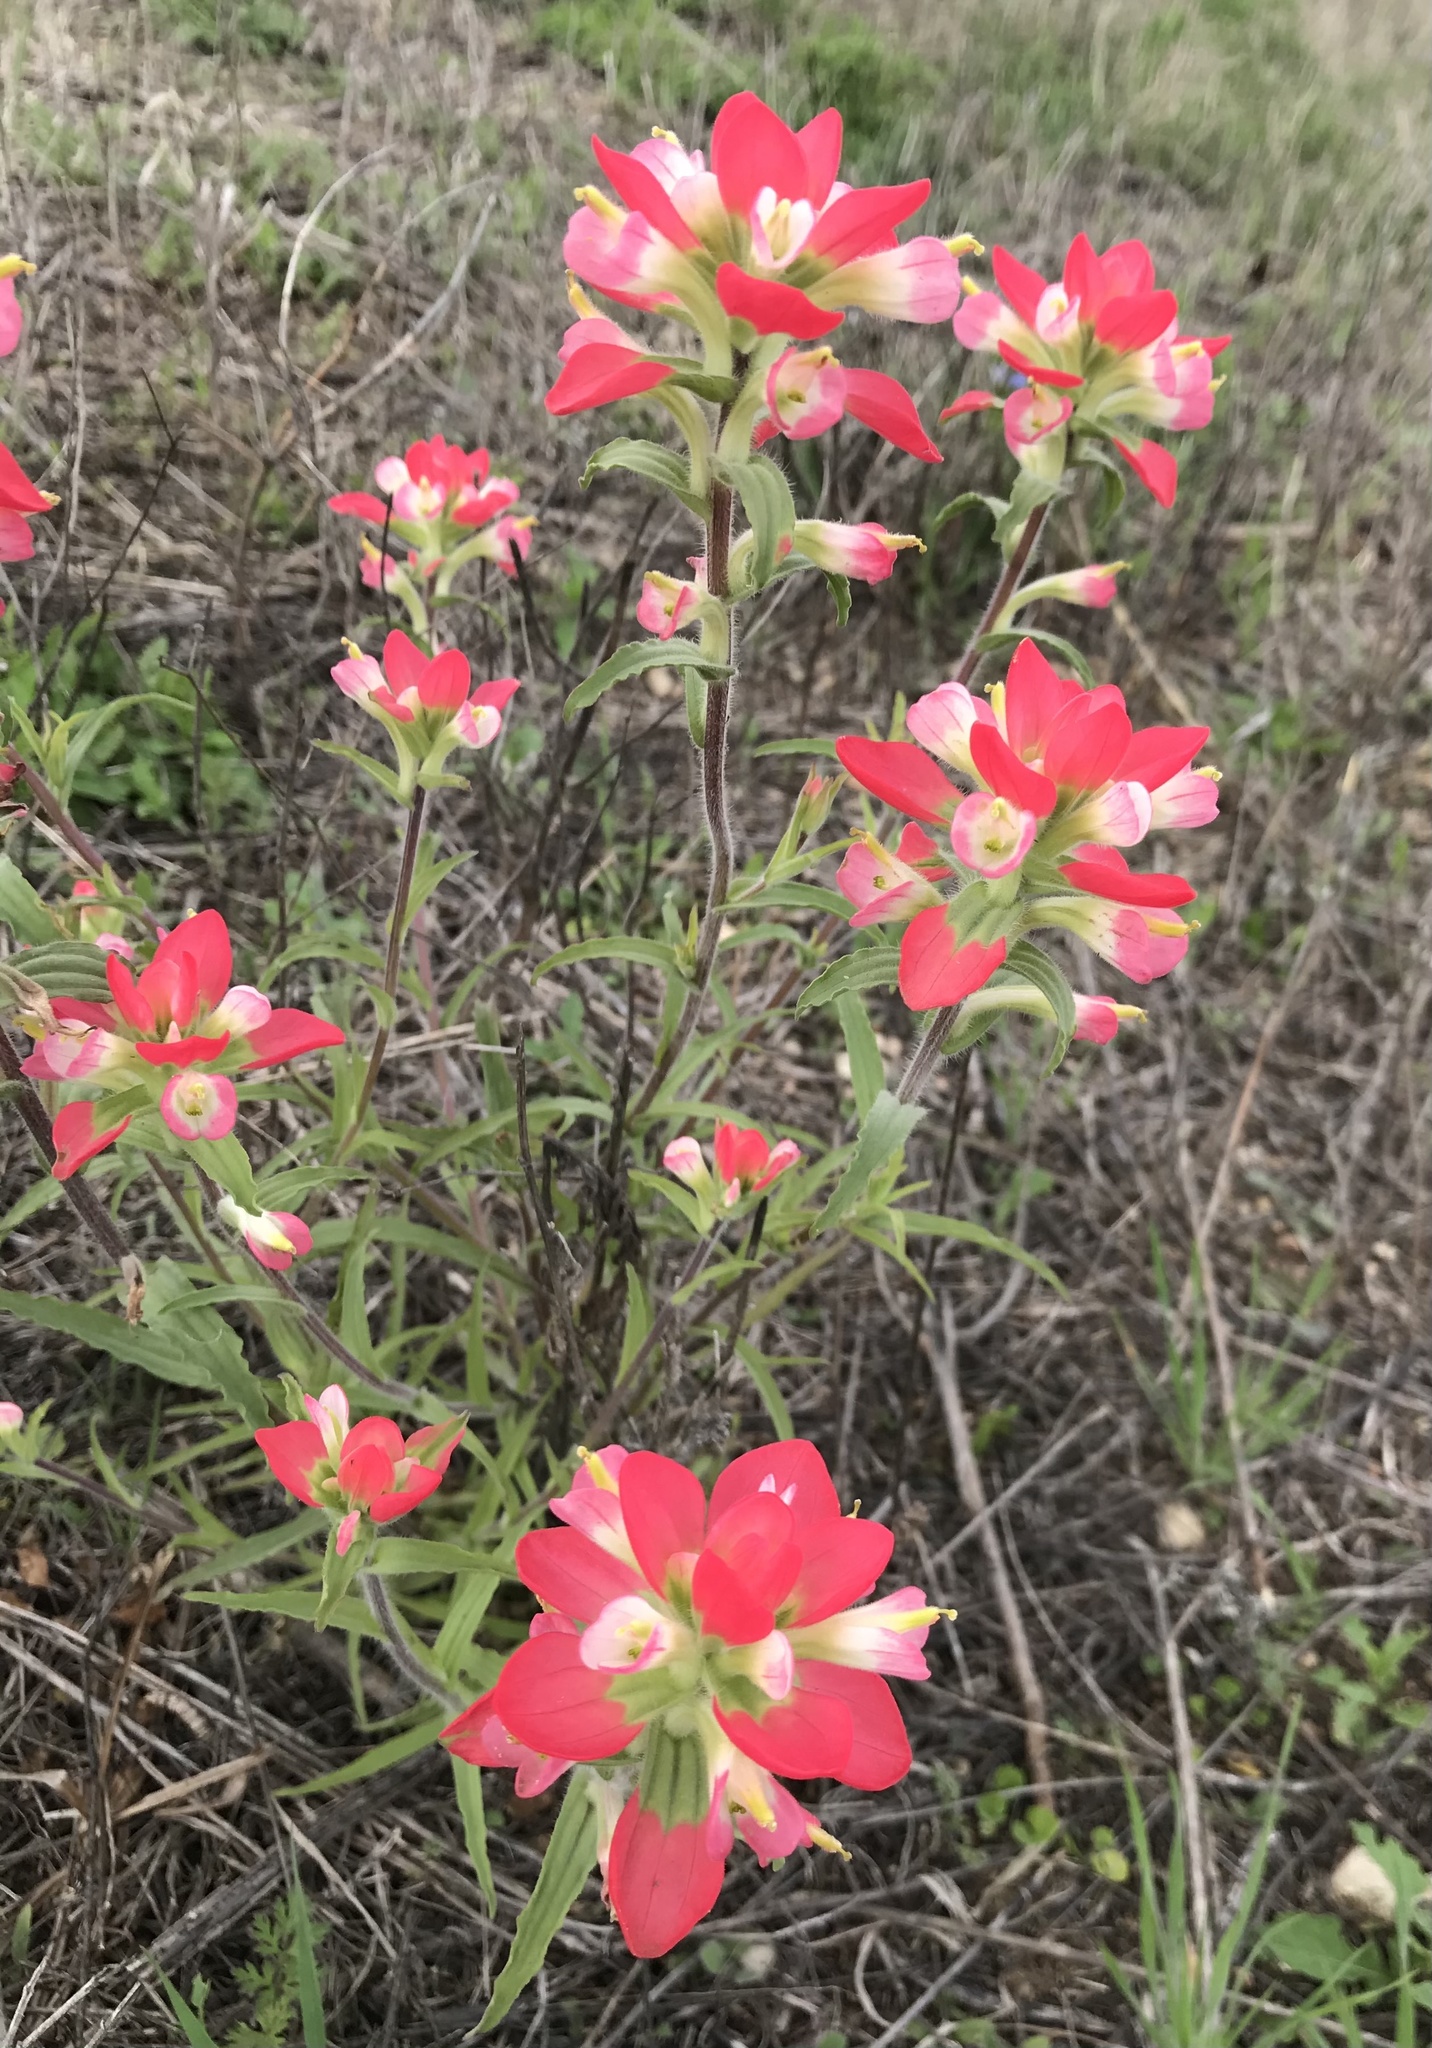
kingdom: Plantae
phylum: Tracheophyta
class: Magnoliopsida
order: Lamiales
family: Orobanchaceae
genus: Castilleja
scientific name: Castilleja indivisa
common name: Texas paintbrush
